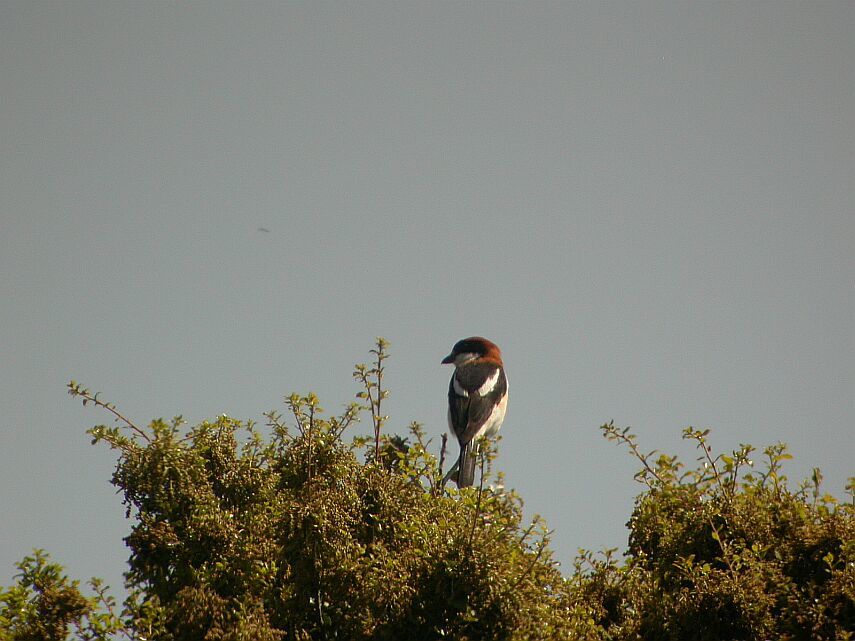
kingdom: Animalia
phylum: Chordata
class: Aves
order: Passeriformes
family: Laniidae
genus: Lanius
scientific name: Lanius senator
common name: Woodchat shrike
